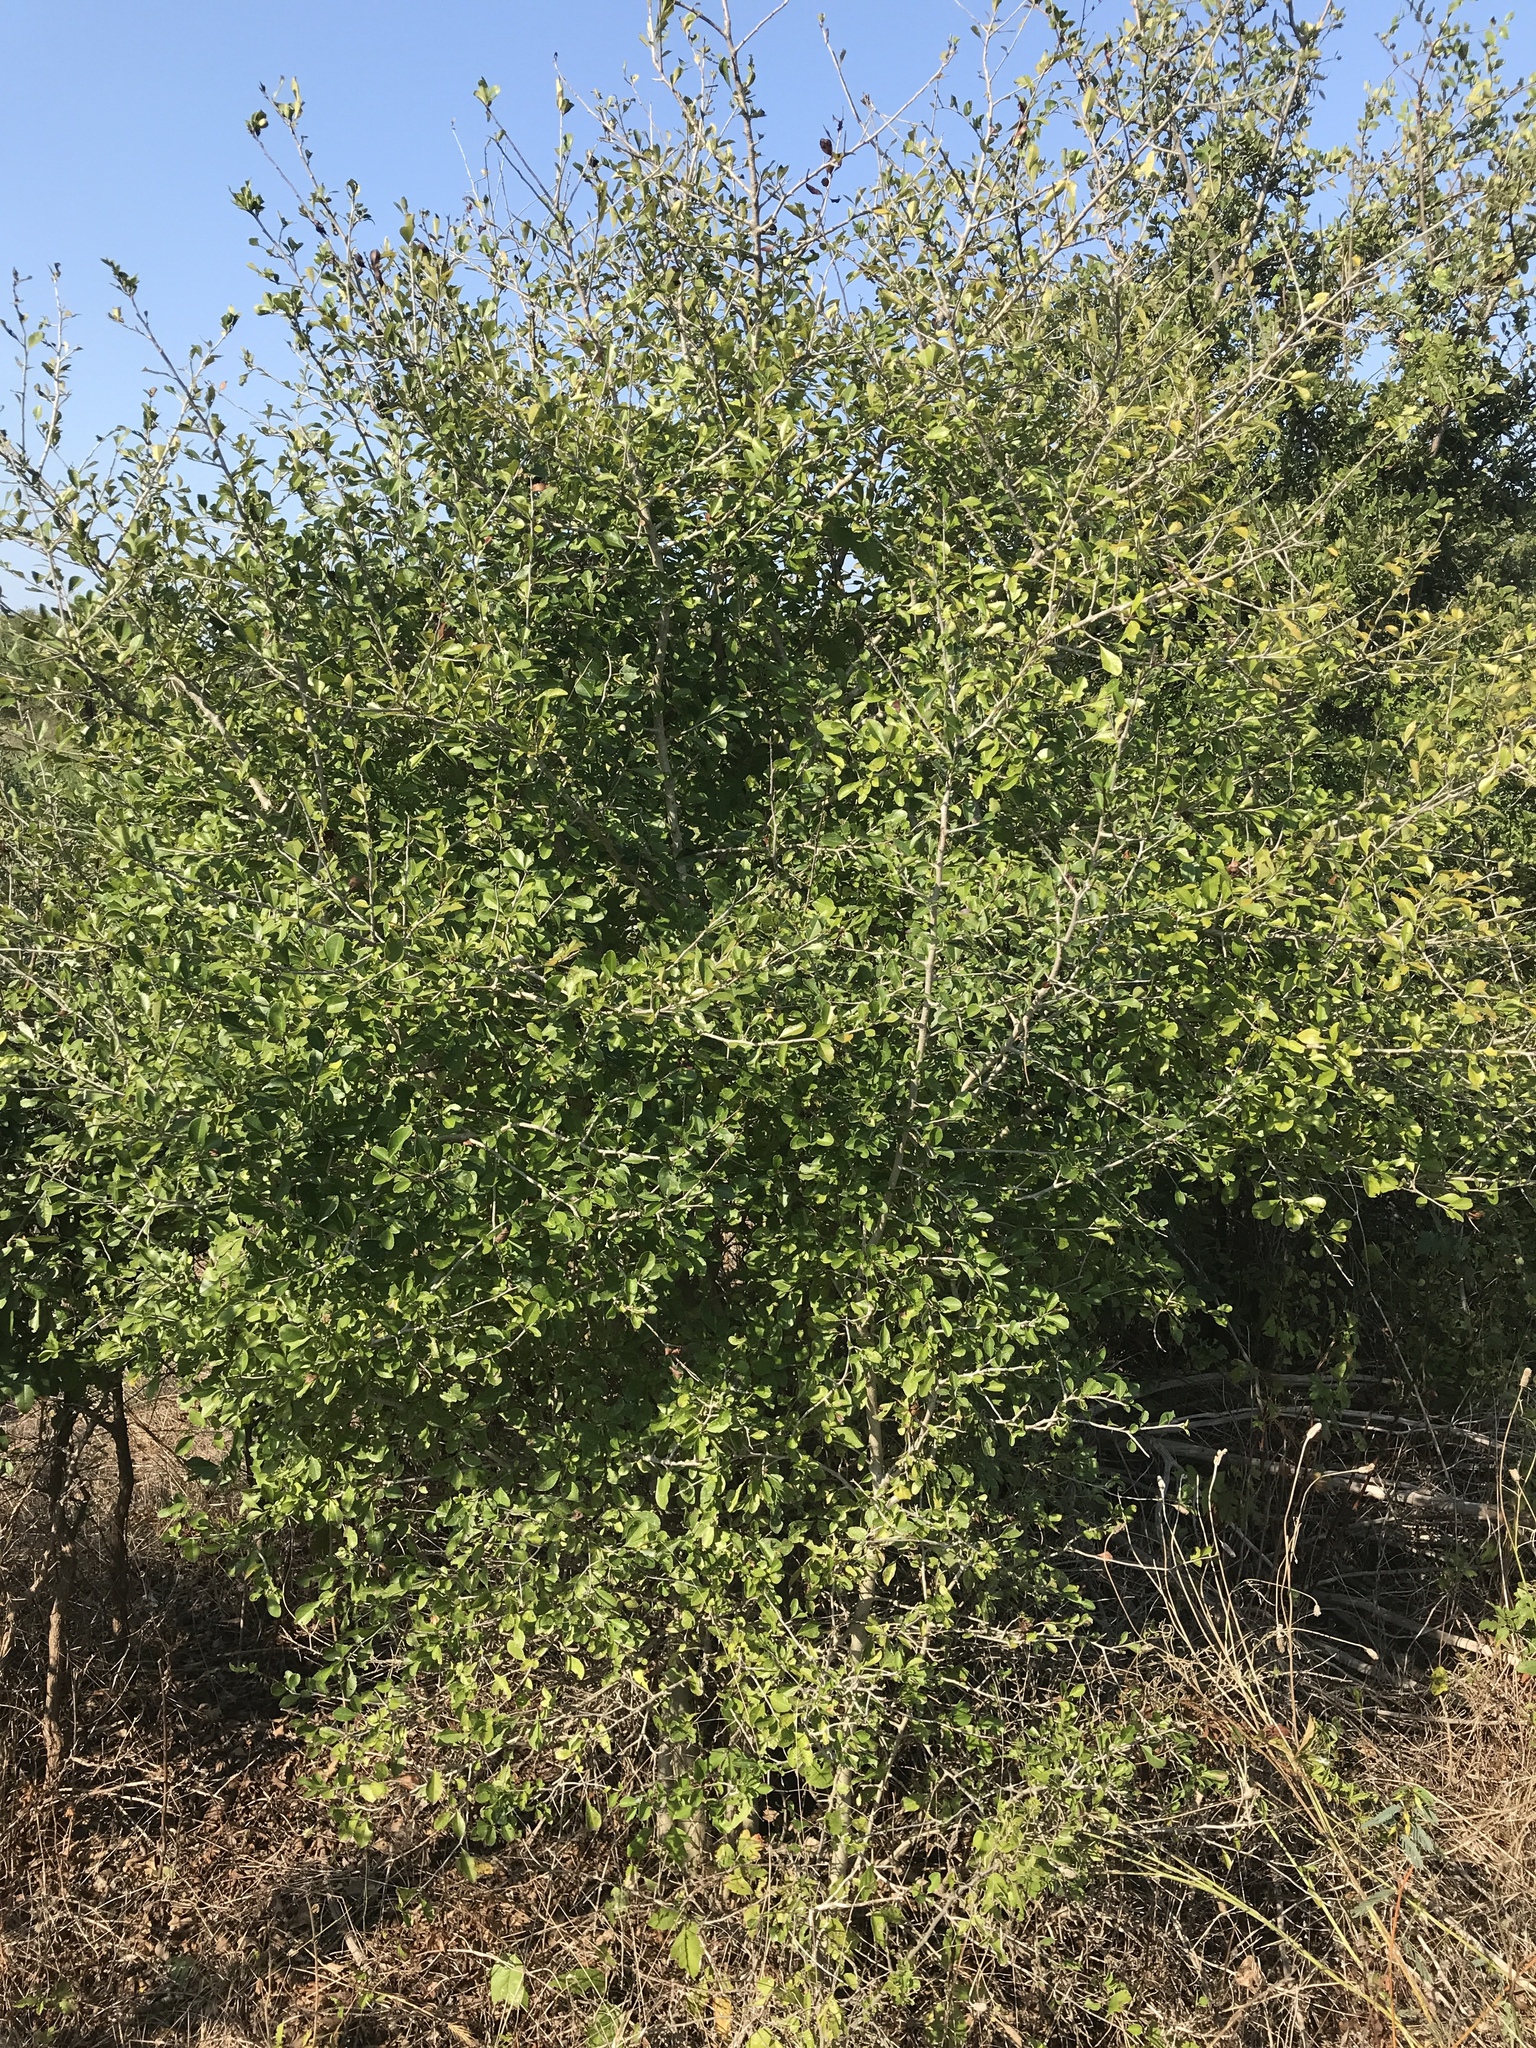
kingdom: Plantae
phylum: Tracheophyta
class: Magnoliopsida
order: Aquifoliales
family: Aquifoliaceae
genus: Ilex
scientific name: Ilex decidua
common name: Possum-haw
